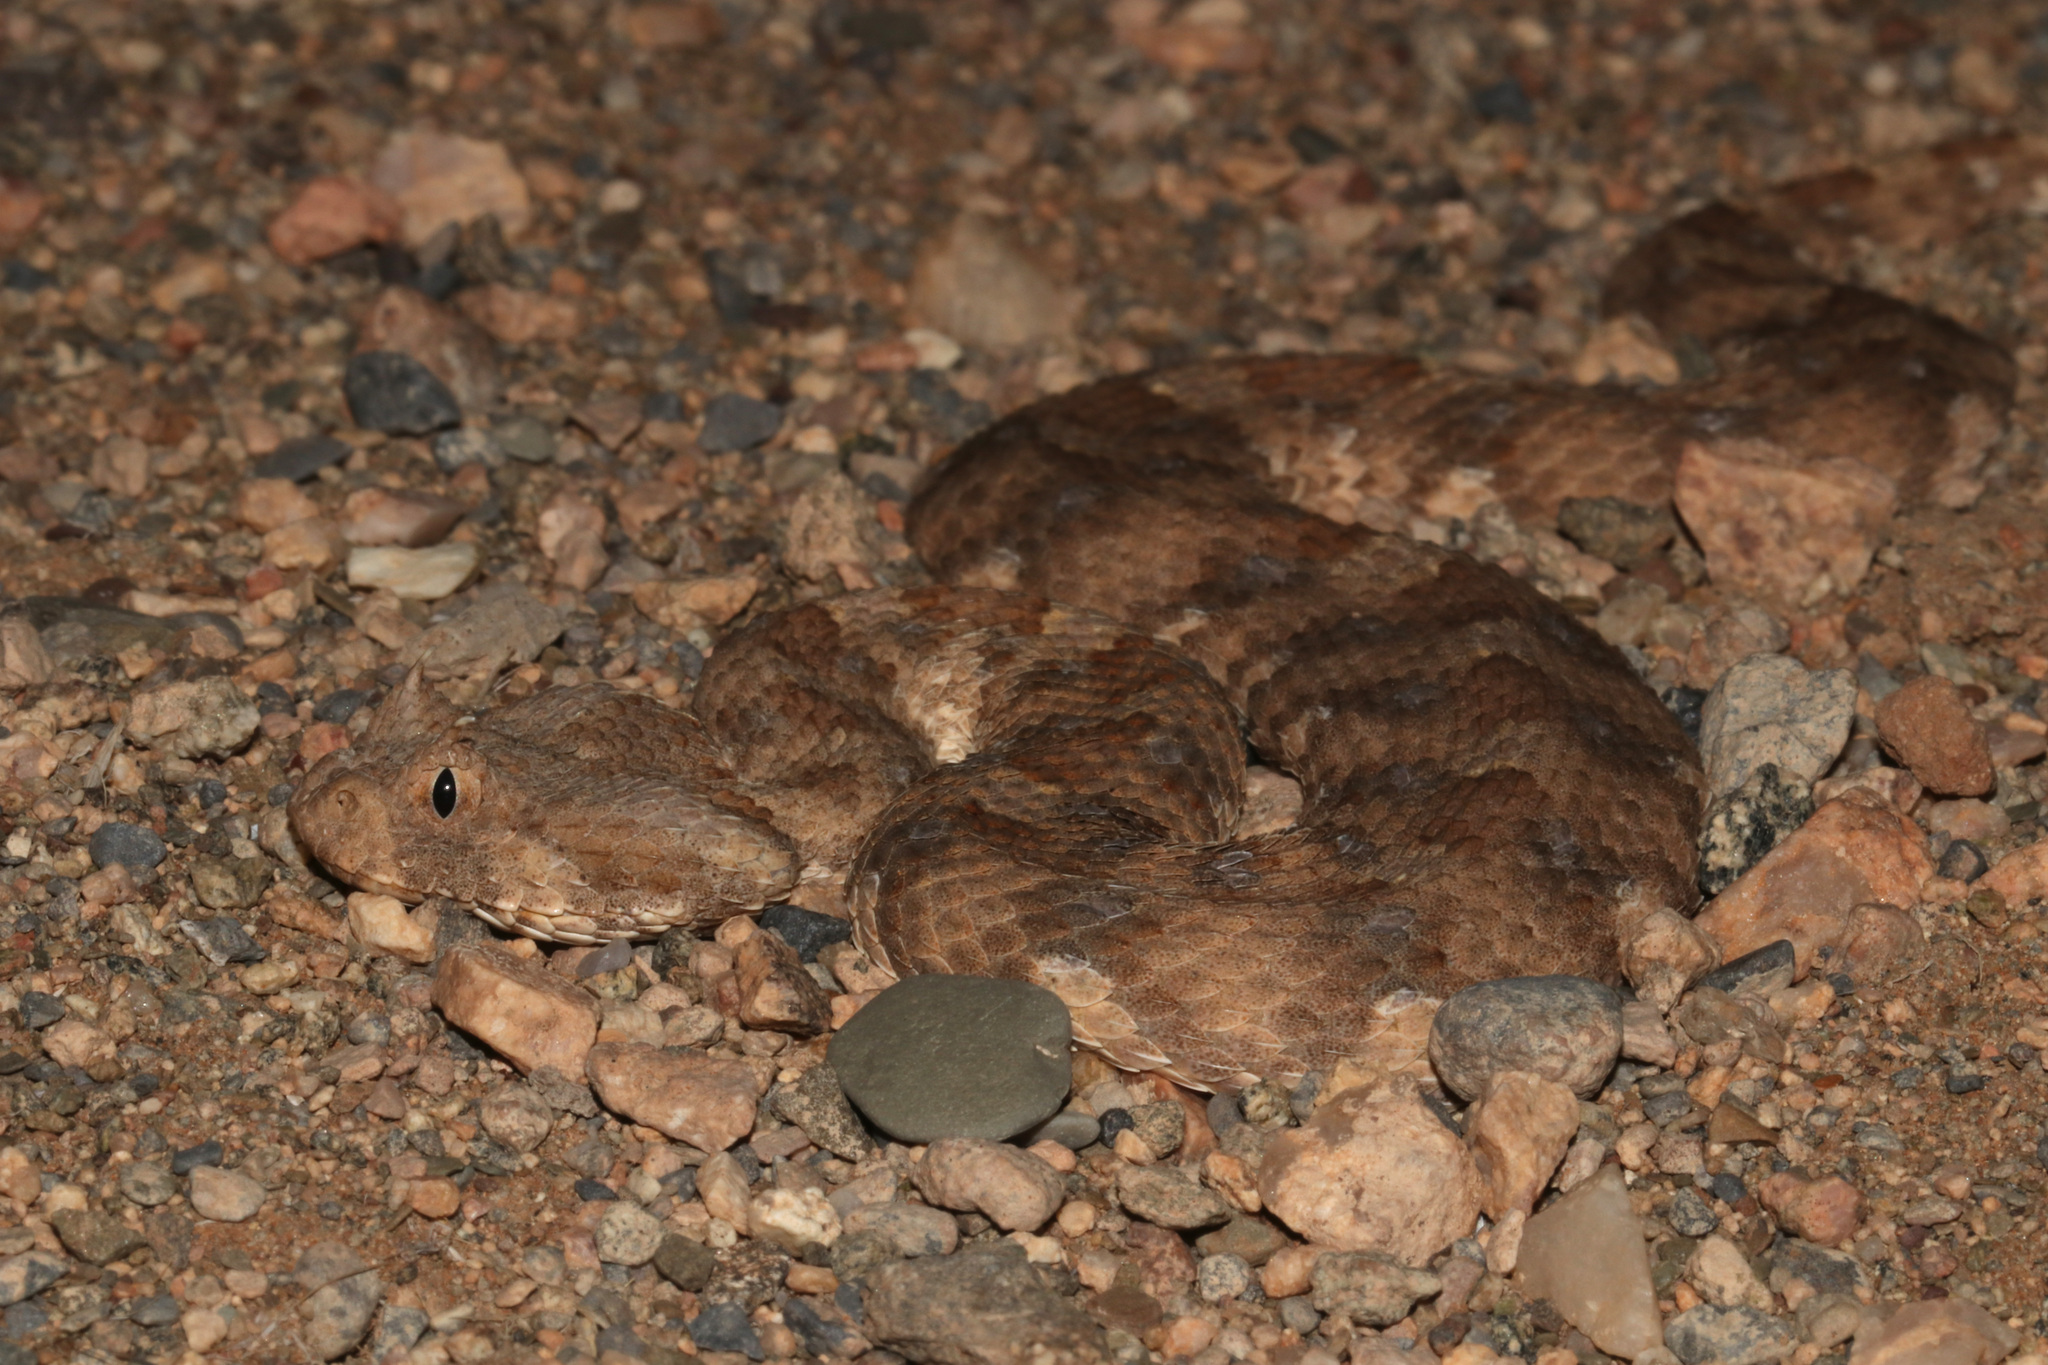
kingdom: Animalia
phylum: Chordata
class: Squamata
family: Viperidae
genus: Bitis
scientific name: Bitis caudalis
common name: Horned adder
